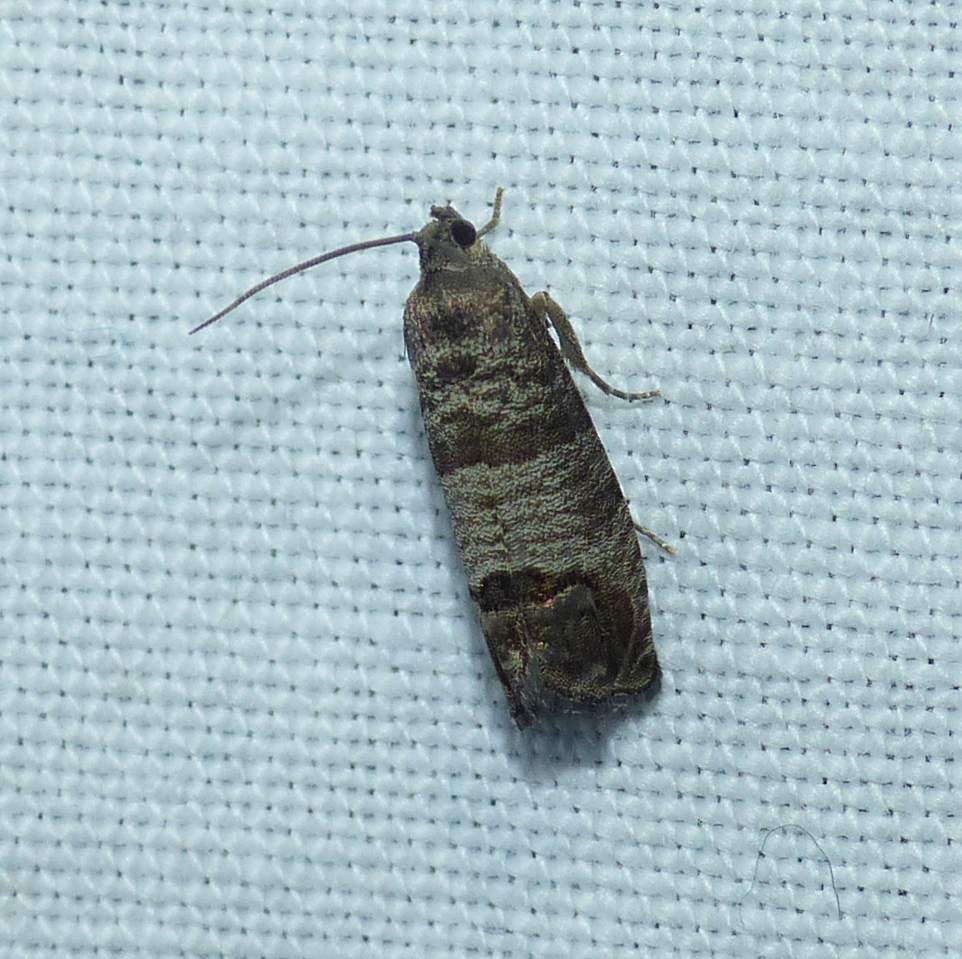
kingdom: Animalia
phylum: Arthropoda
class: Insecta
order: Lepidoptera
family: Tortricidae
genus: Cydia
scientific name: Cydia pomonella
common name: Codling moth
